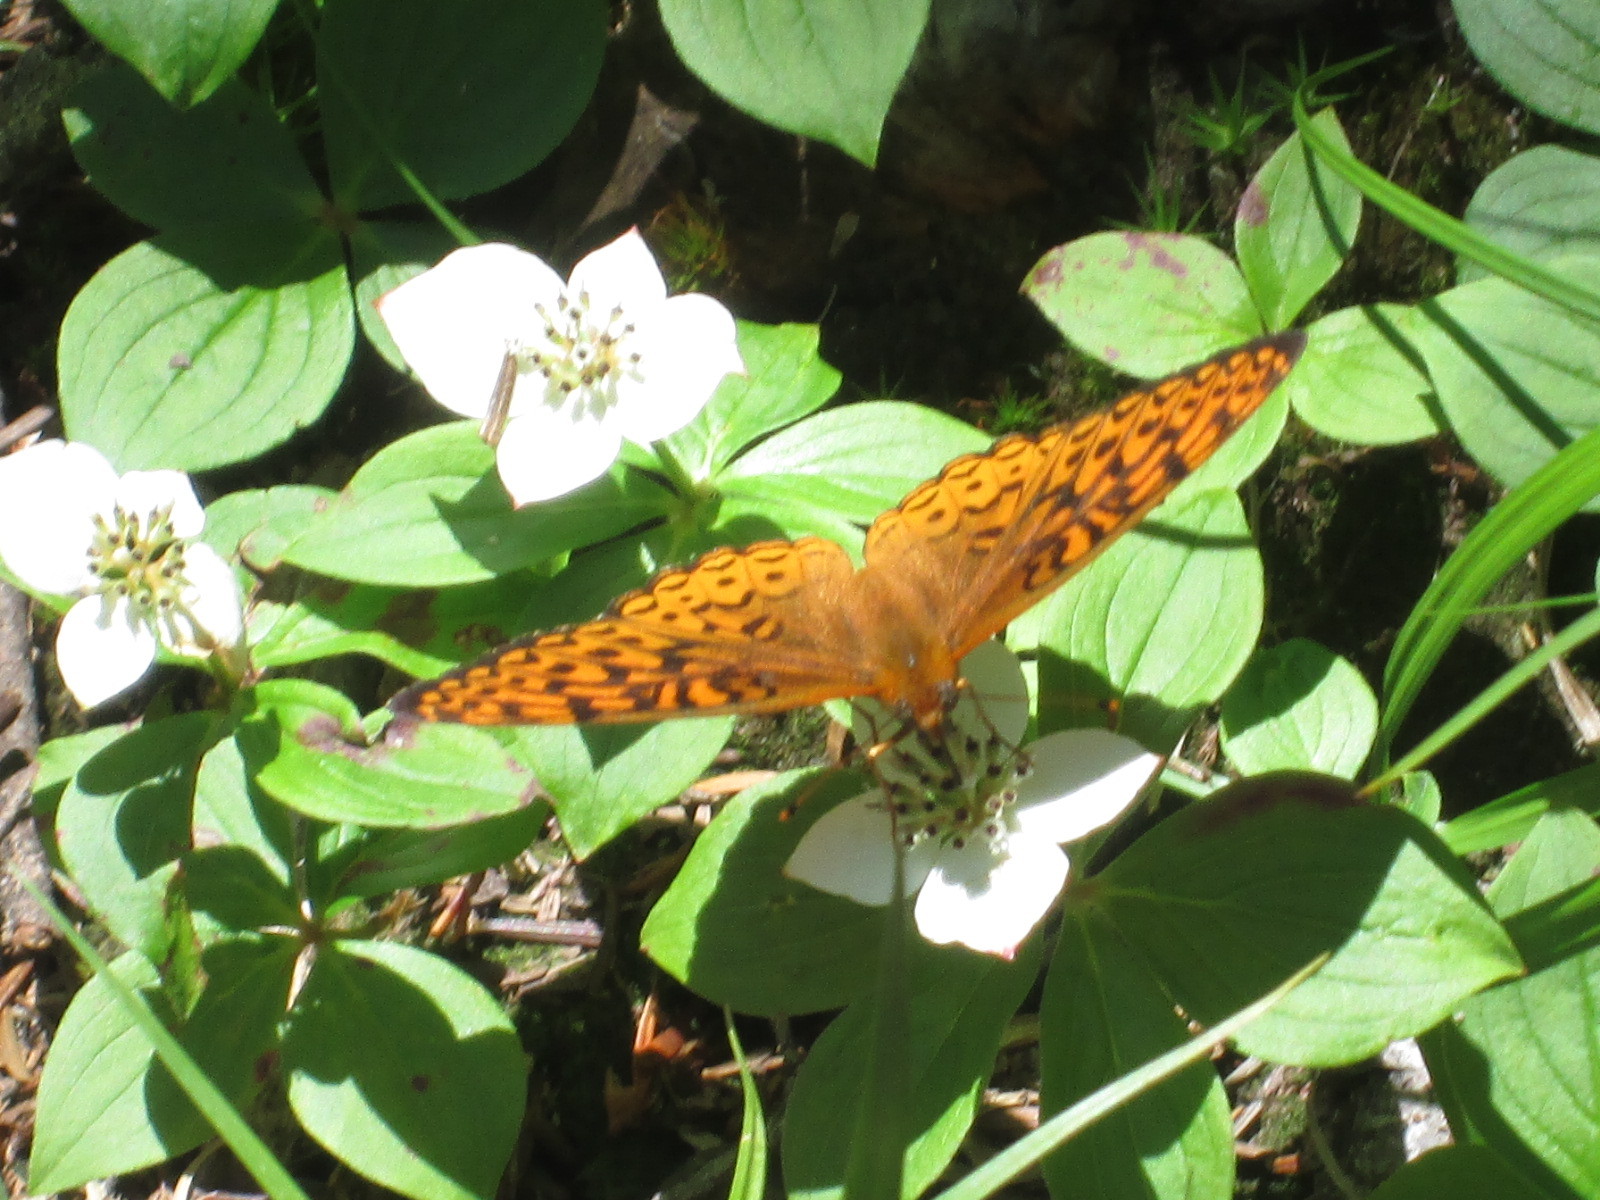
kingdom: Animalia
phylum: Arthropoda
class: Insecta
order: Lepidoptera
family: Nymphalidae
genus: Speyeria
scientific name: Speyeria atlantis
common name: Atlantis fritillary
